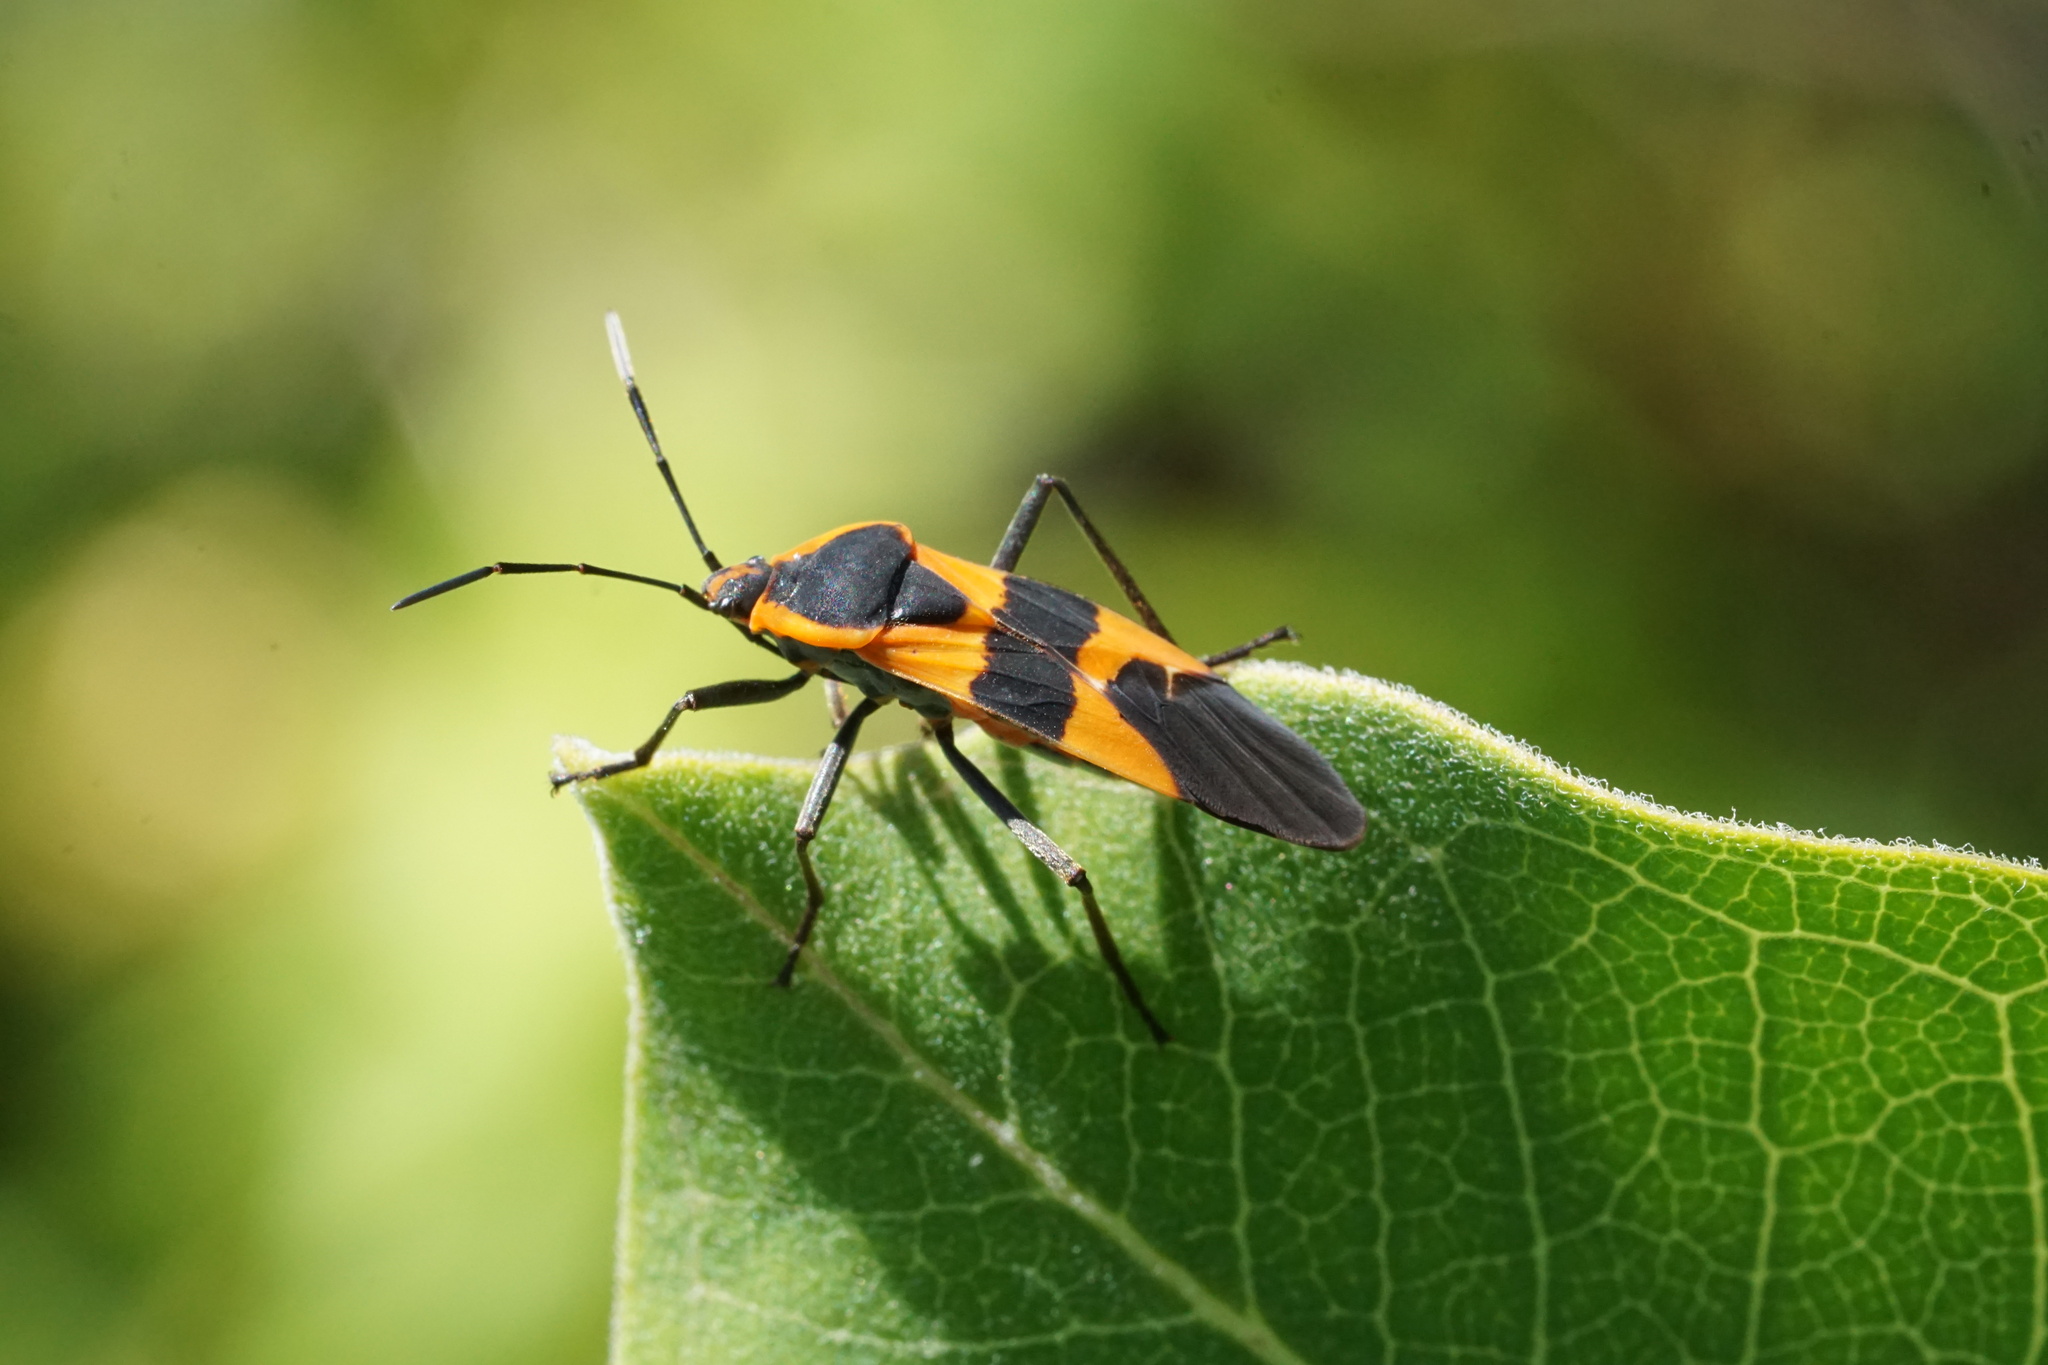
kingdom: Animalia
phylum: Arthropoda
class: Insecta
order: Hemiptera
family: Lygaeidae
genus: Oncopeltus
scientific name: Oncopeltus fasciatus
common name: Large milkweed bug
